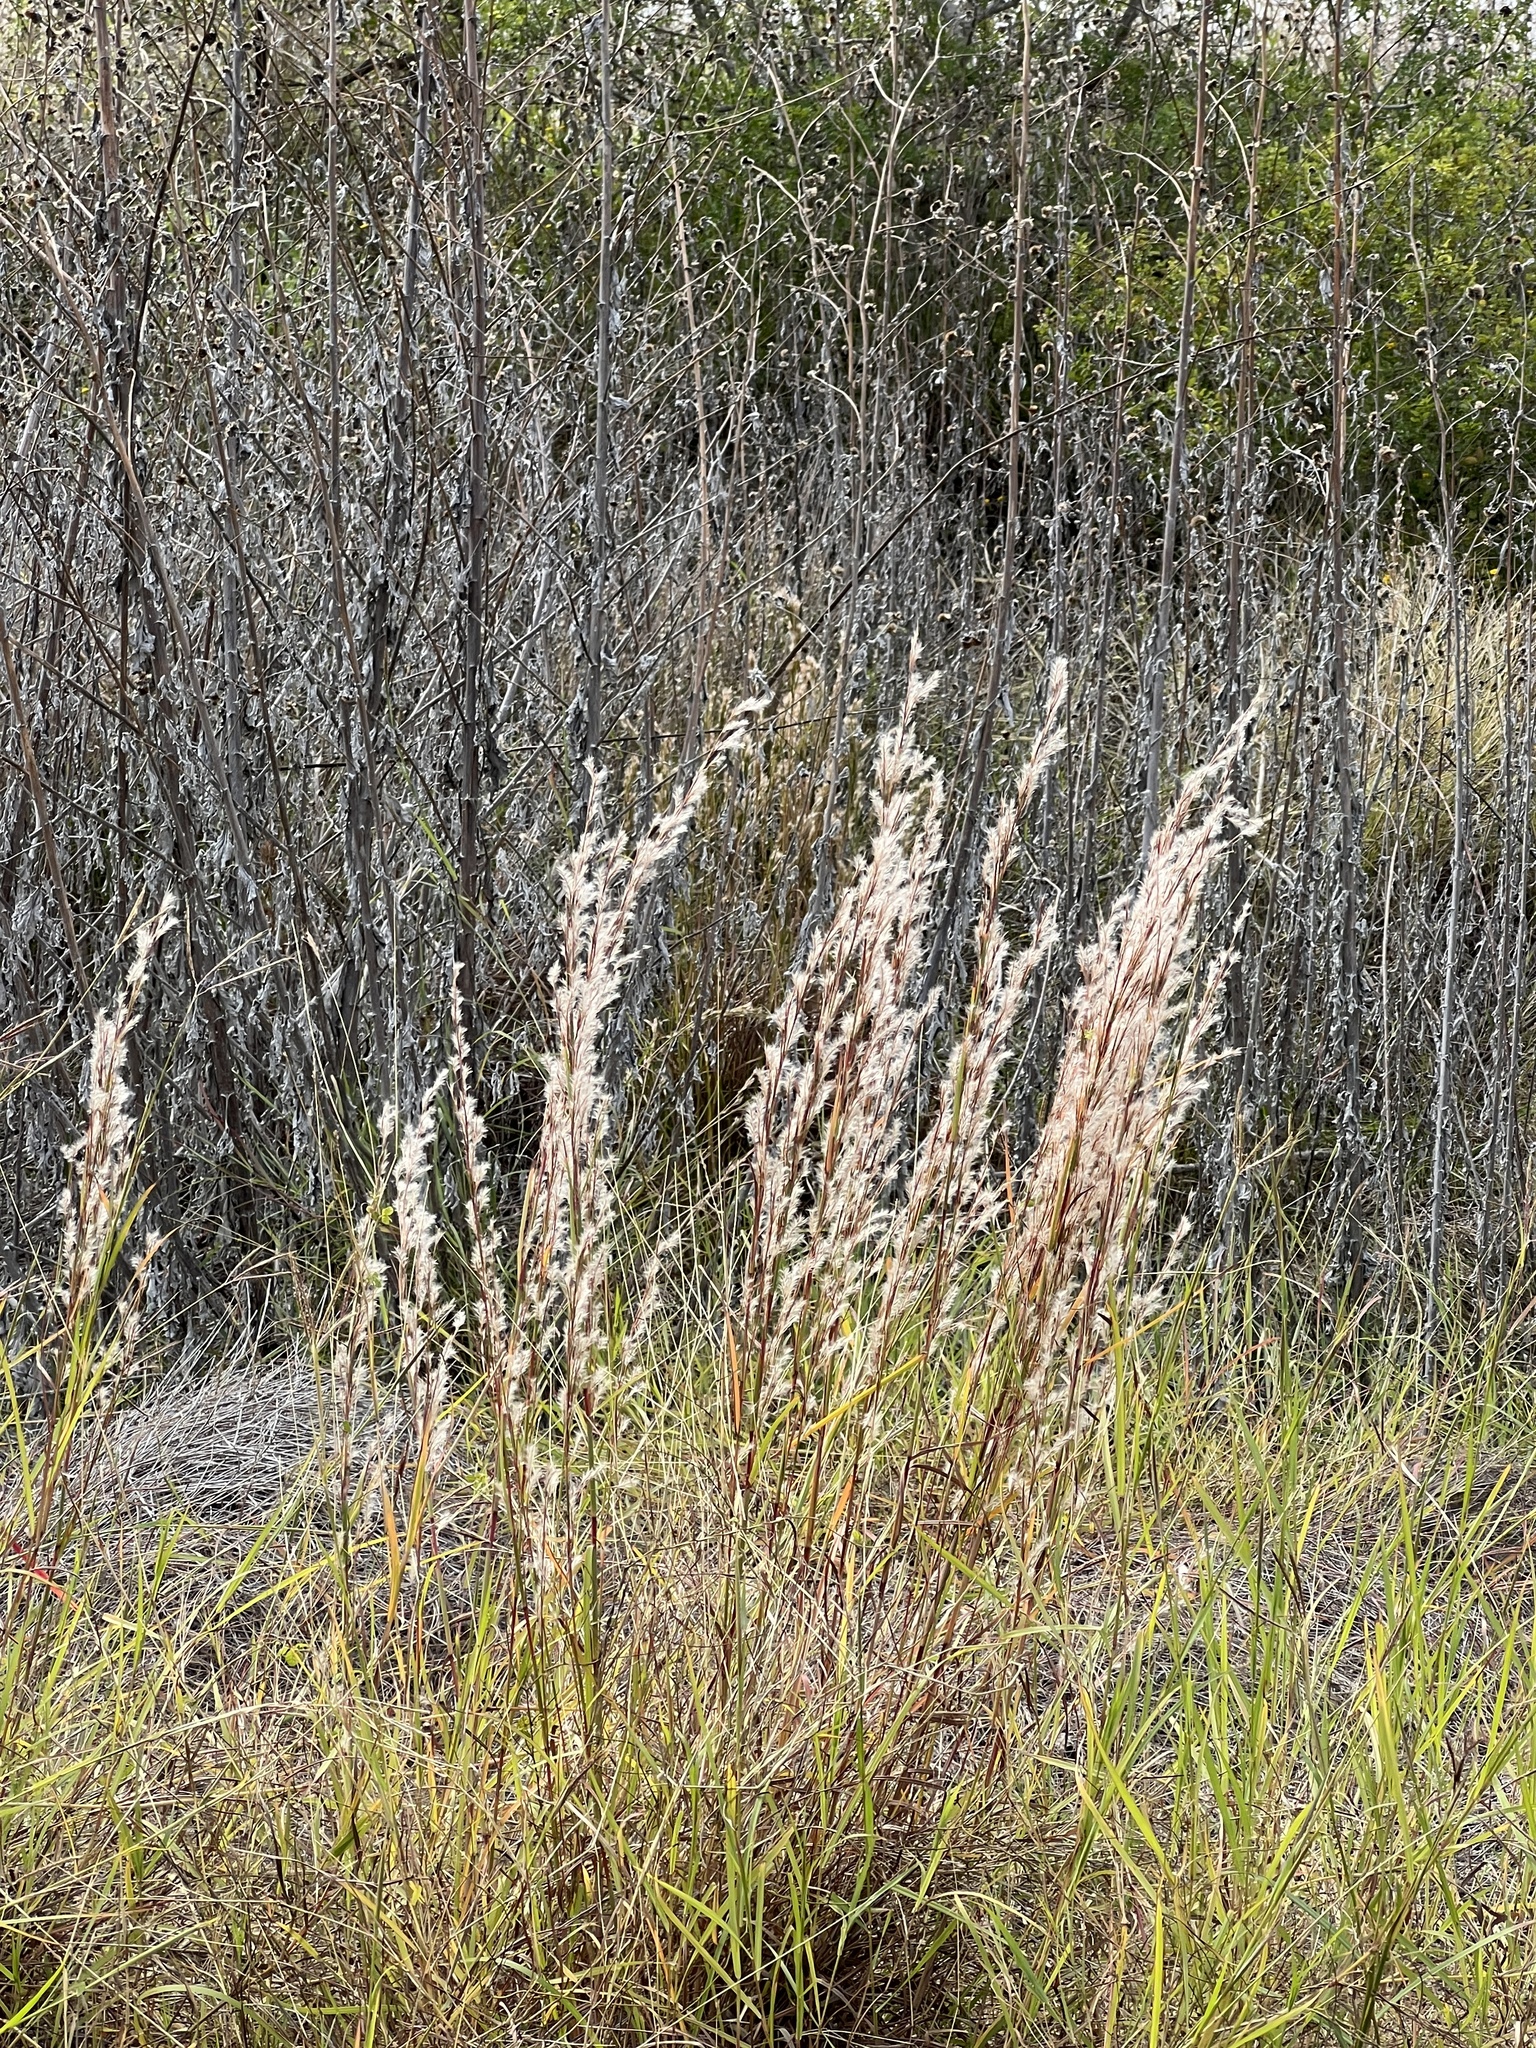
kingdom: Plantae
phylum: Tracheophyta
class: Liliopsida
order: Poales
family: Poaceae
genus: Schizachyrium
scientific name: Schizachyrium scoparium
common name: Little bluestem
